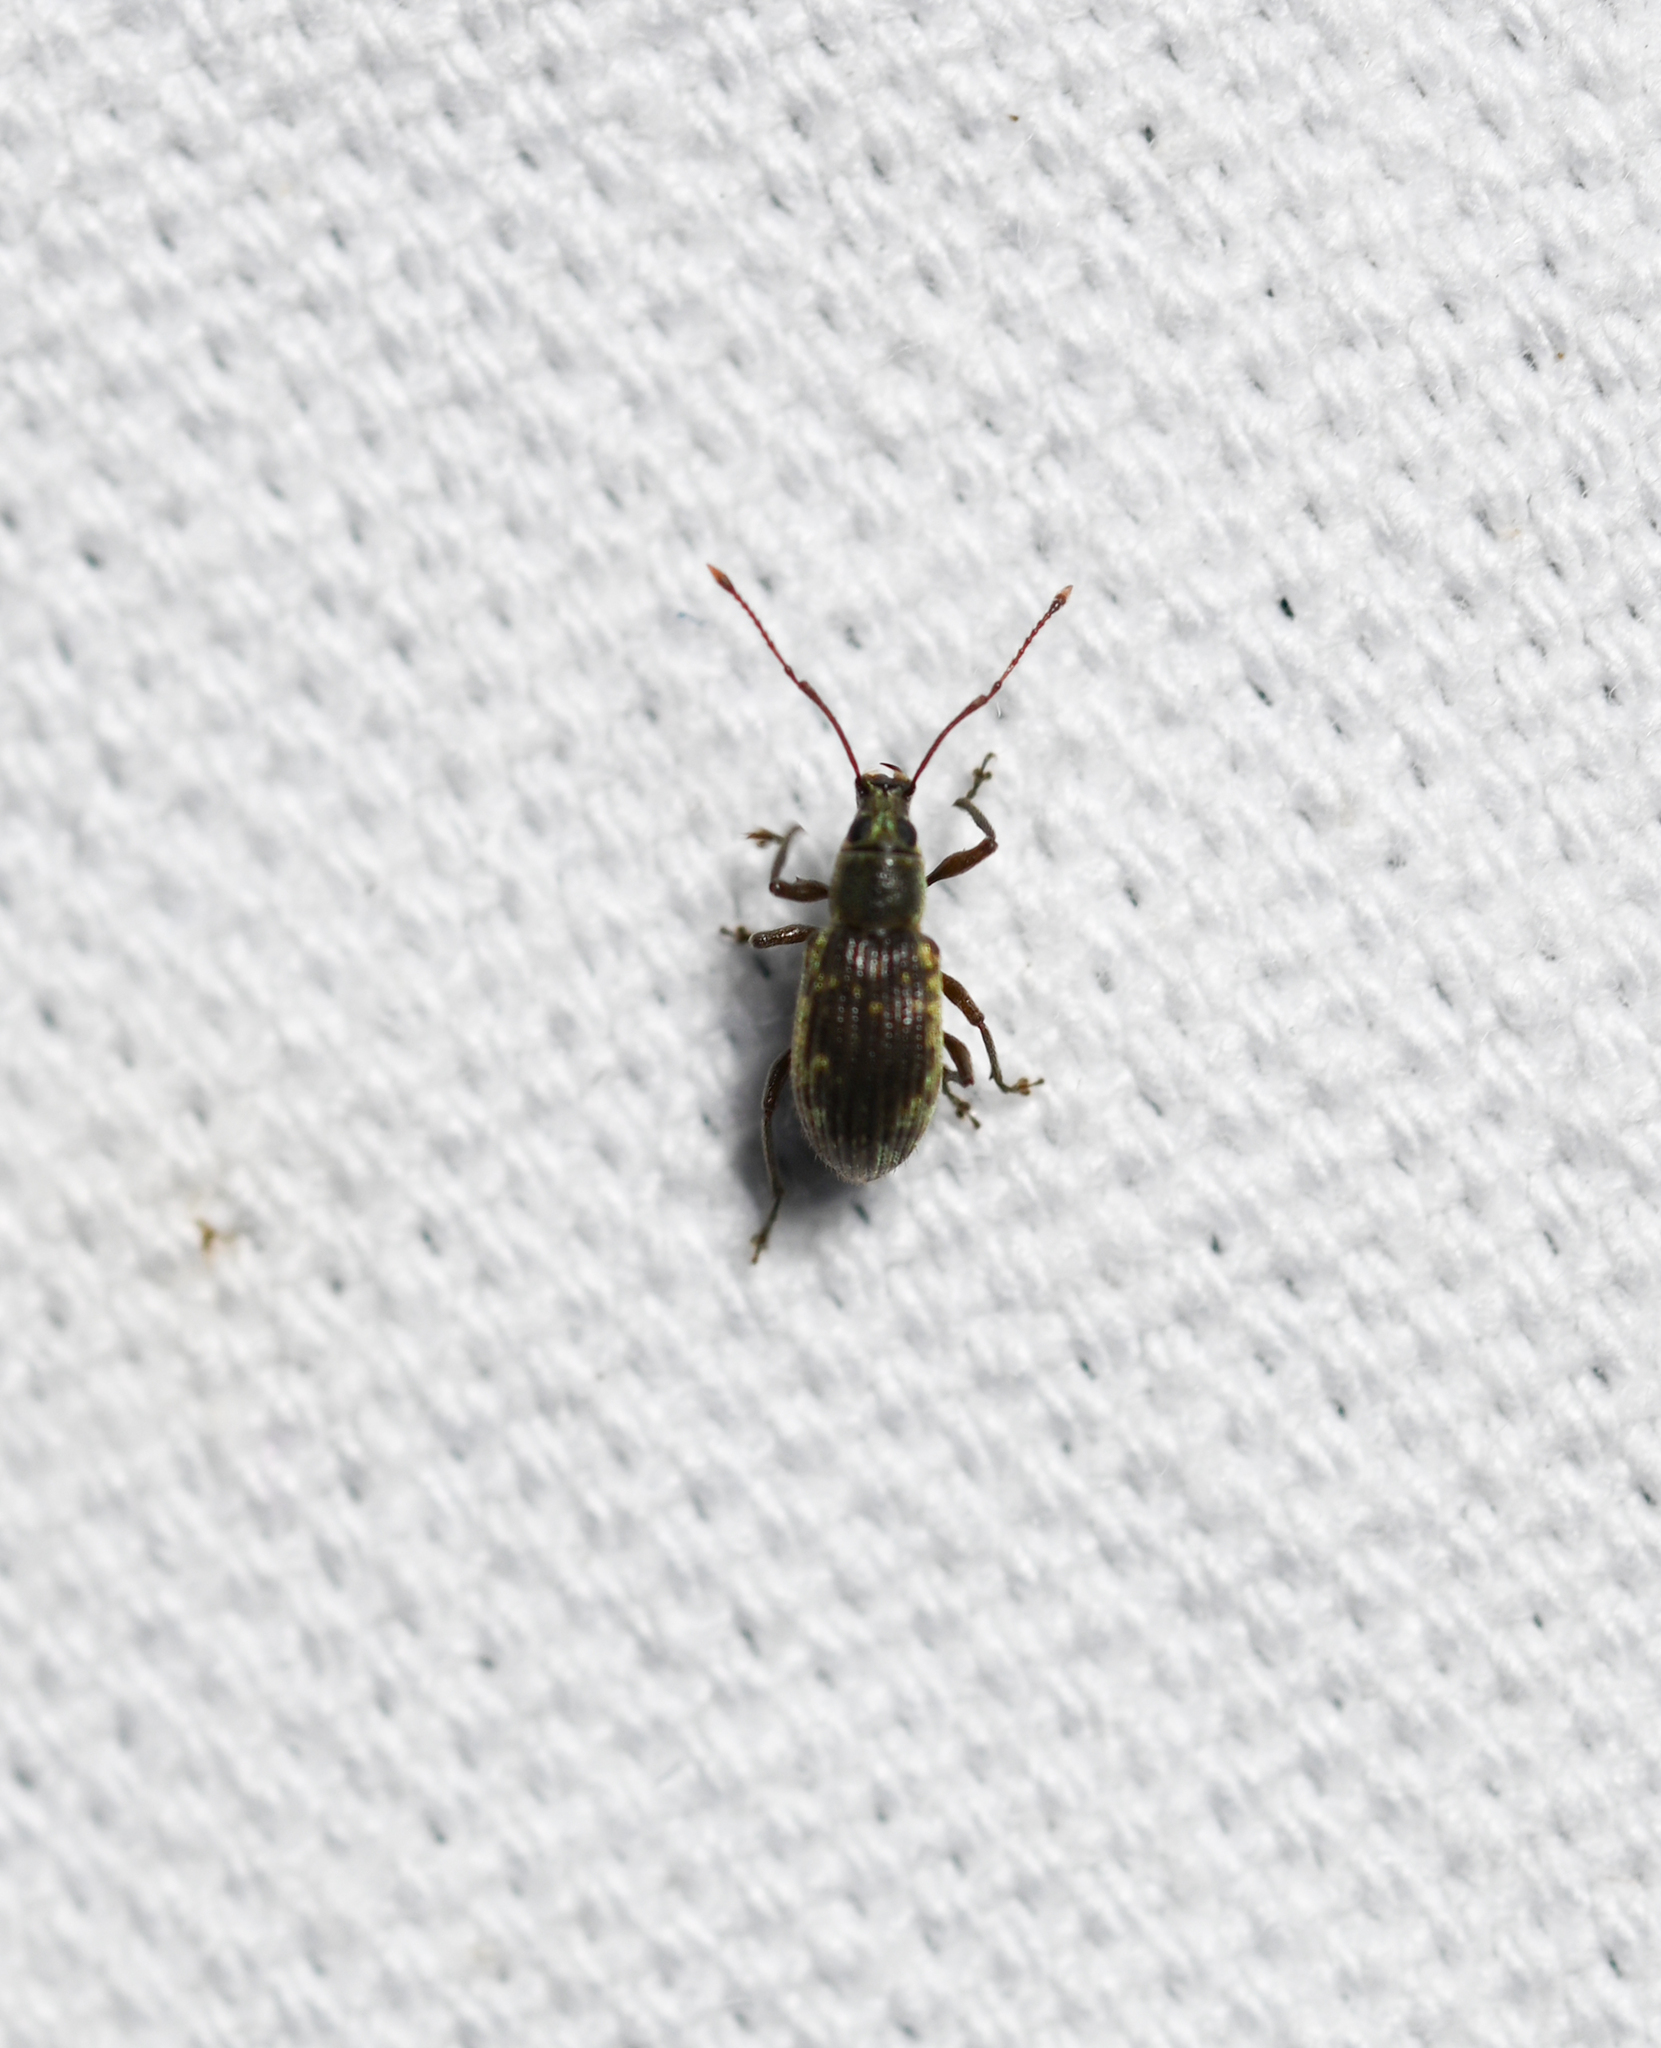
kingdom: Animalia
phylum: Arthropoda
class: Insecta
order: Coleoptera
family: Curculionidae
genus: Cyrtepistomus
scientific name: Cyrtepistomus castaneus
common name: Weevil
